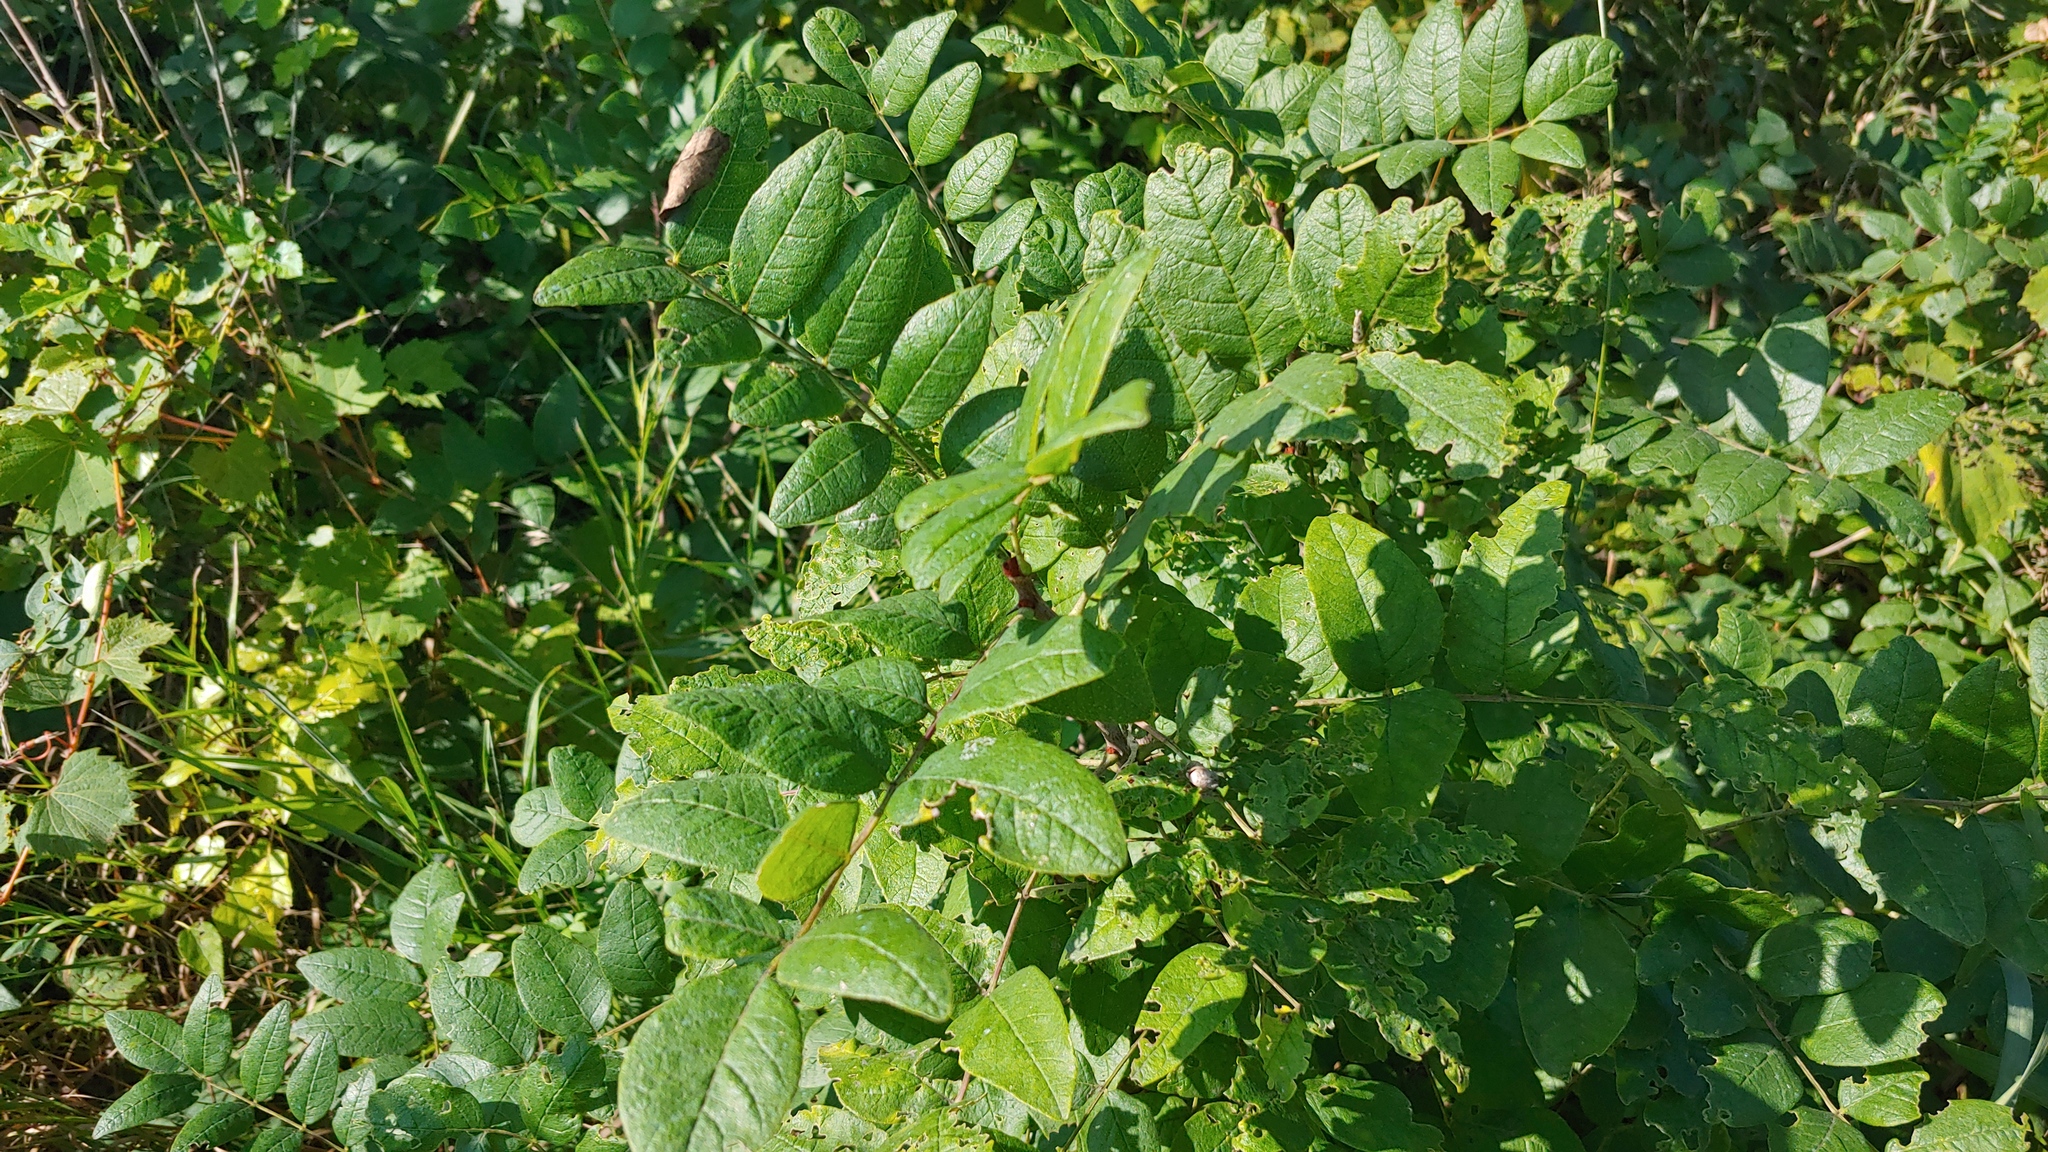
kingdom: Plantae
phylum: Tracheophyta
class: Magnoliopsida
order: Sapindales
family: Rutaceae
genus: Zanthoxylum
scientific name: Zanthoxylum americanum
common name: Northern prickly-ash
